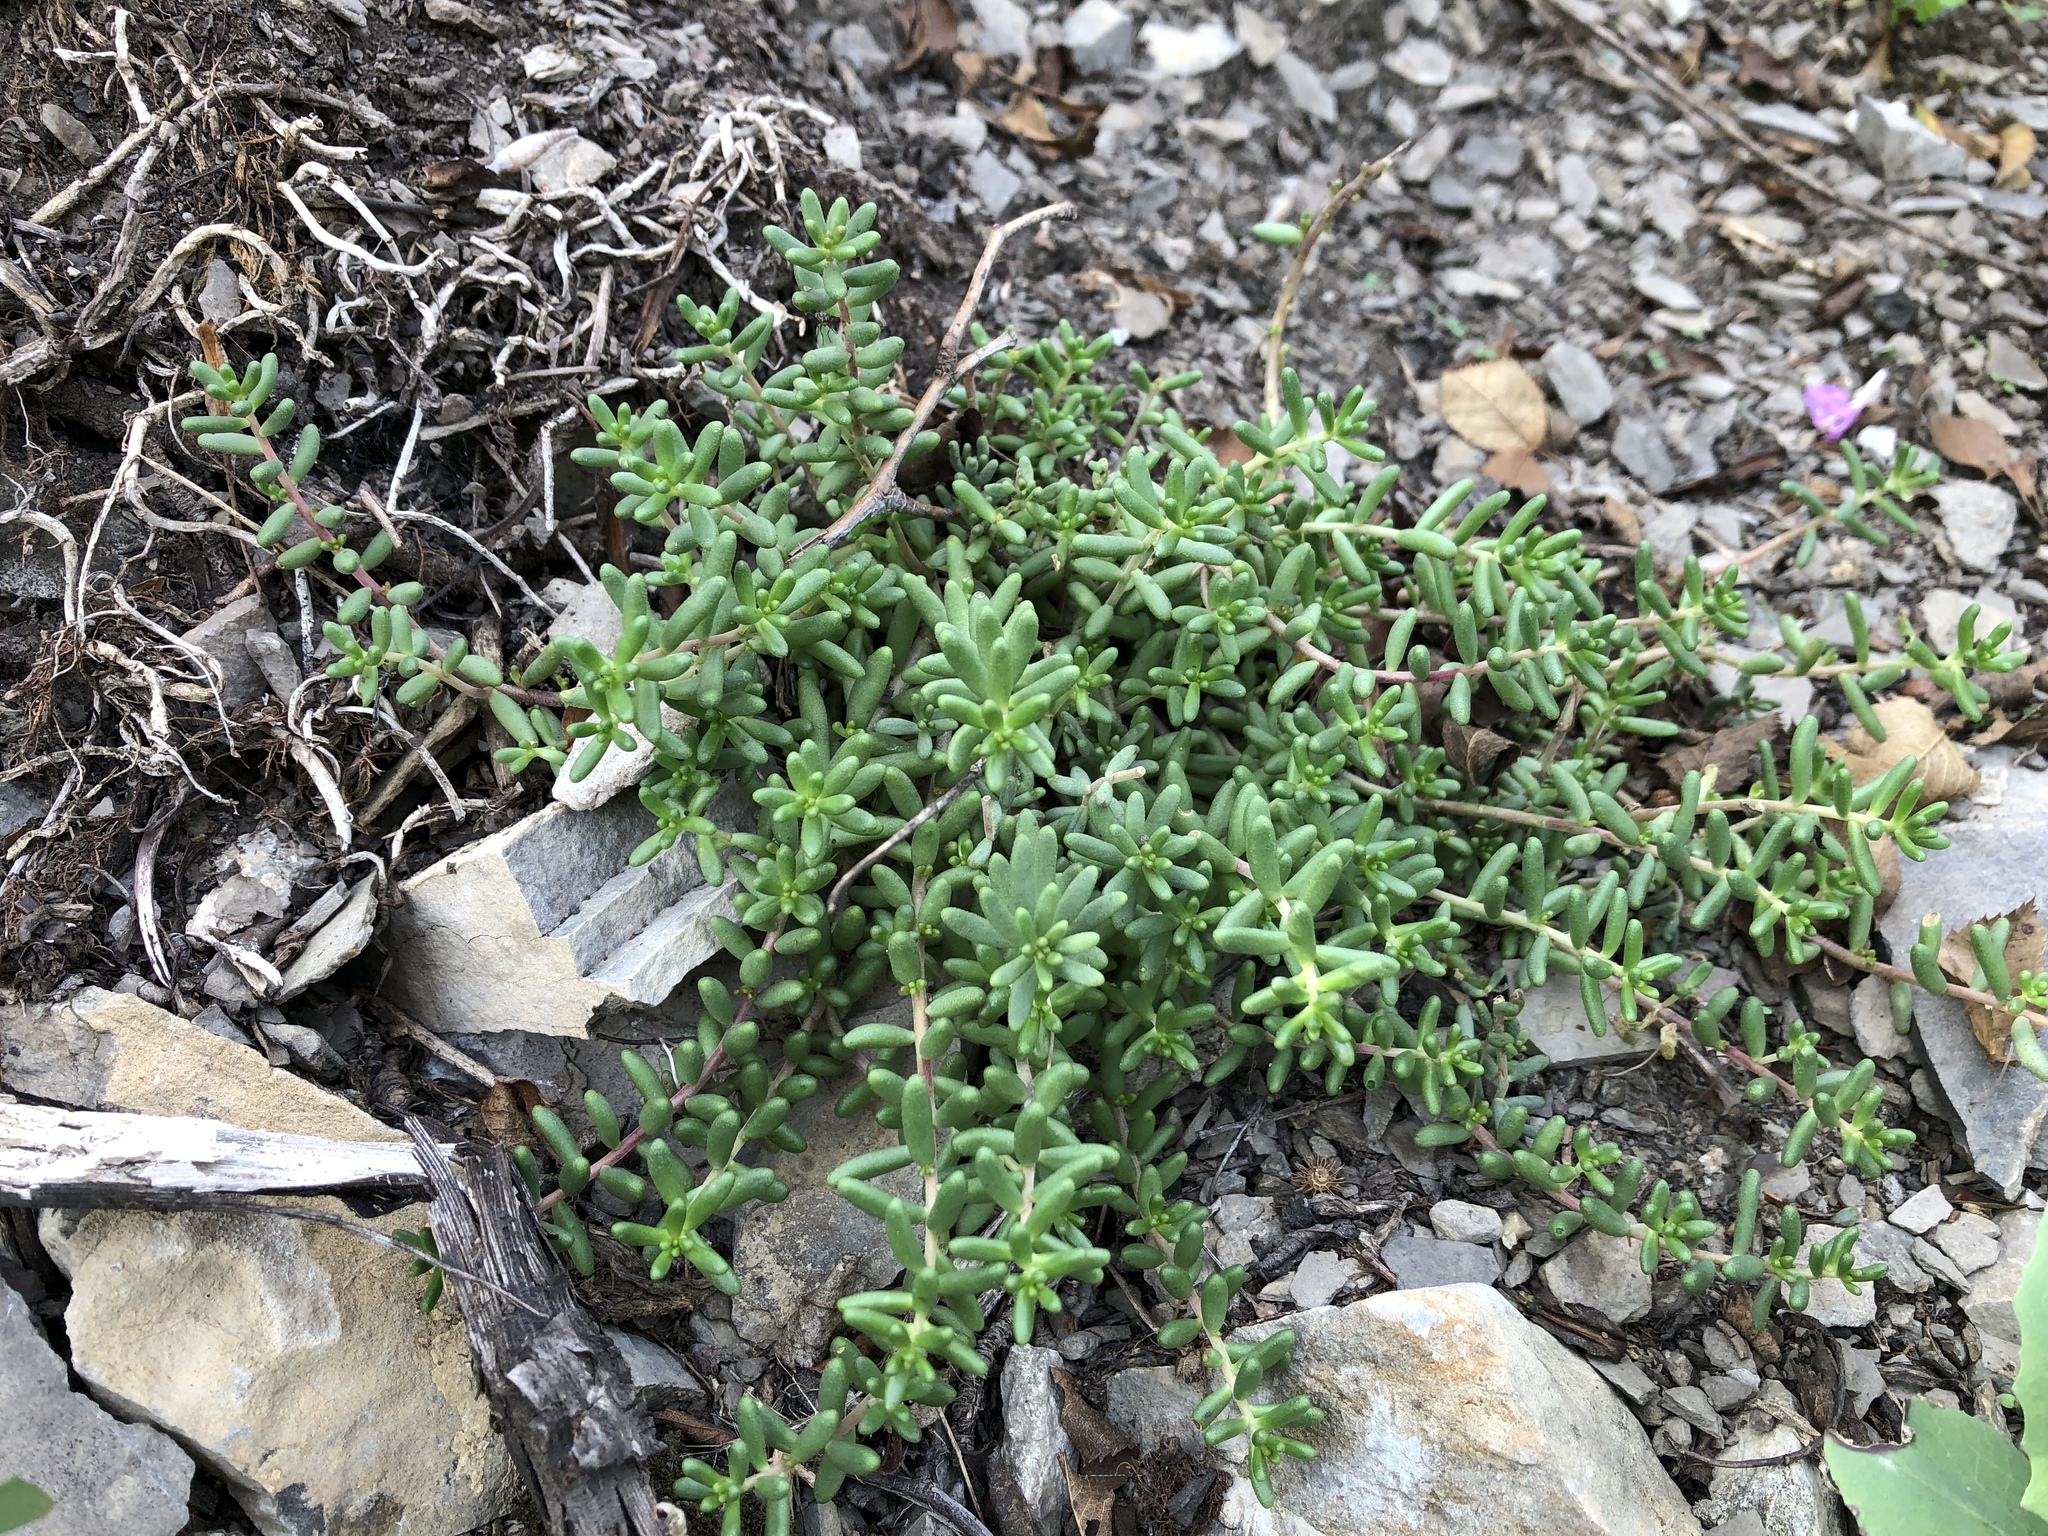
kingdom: Plantae
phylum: Tracheophyta
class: Magnoliopsida
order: Saxifragales
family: Crassulaceae
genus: Sedum
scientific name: Sedum album
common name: White stonecrop
